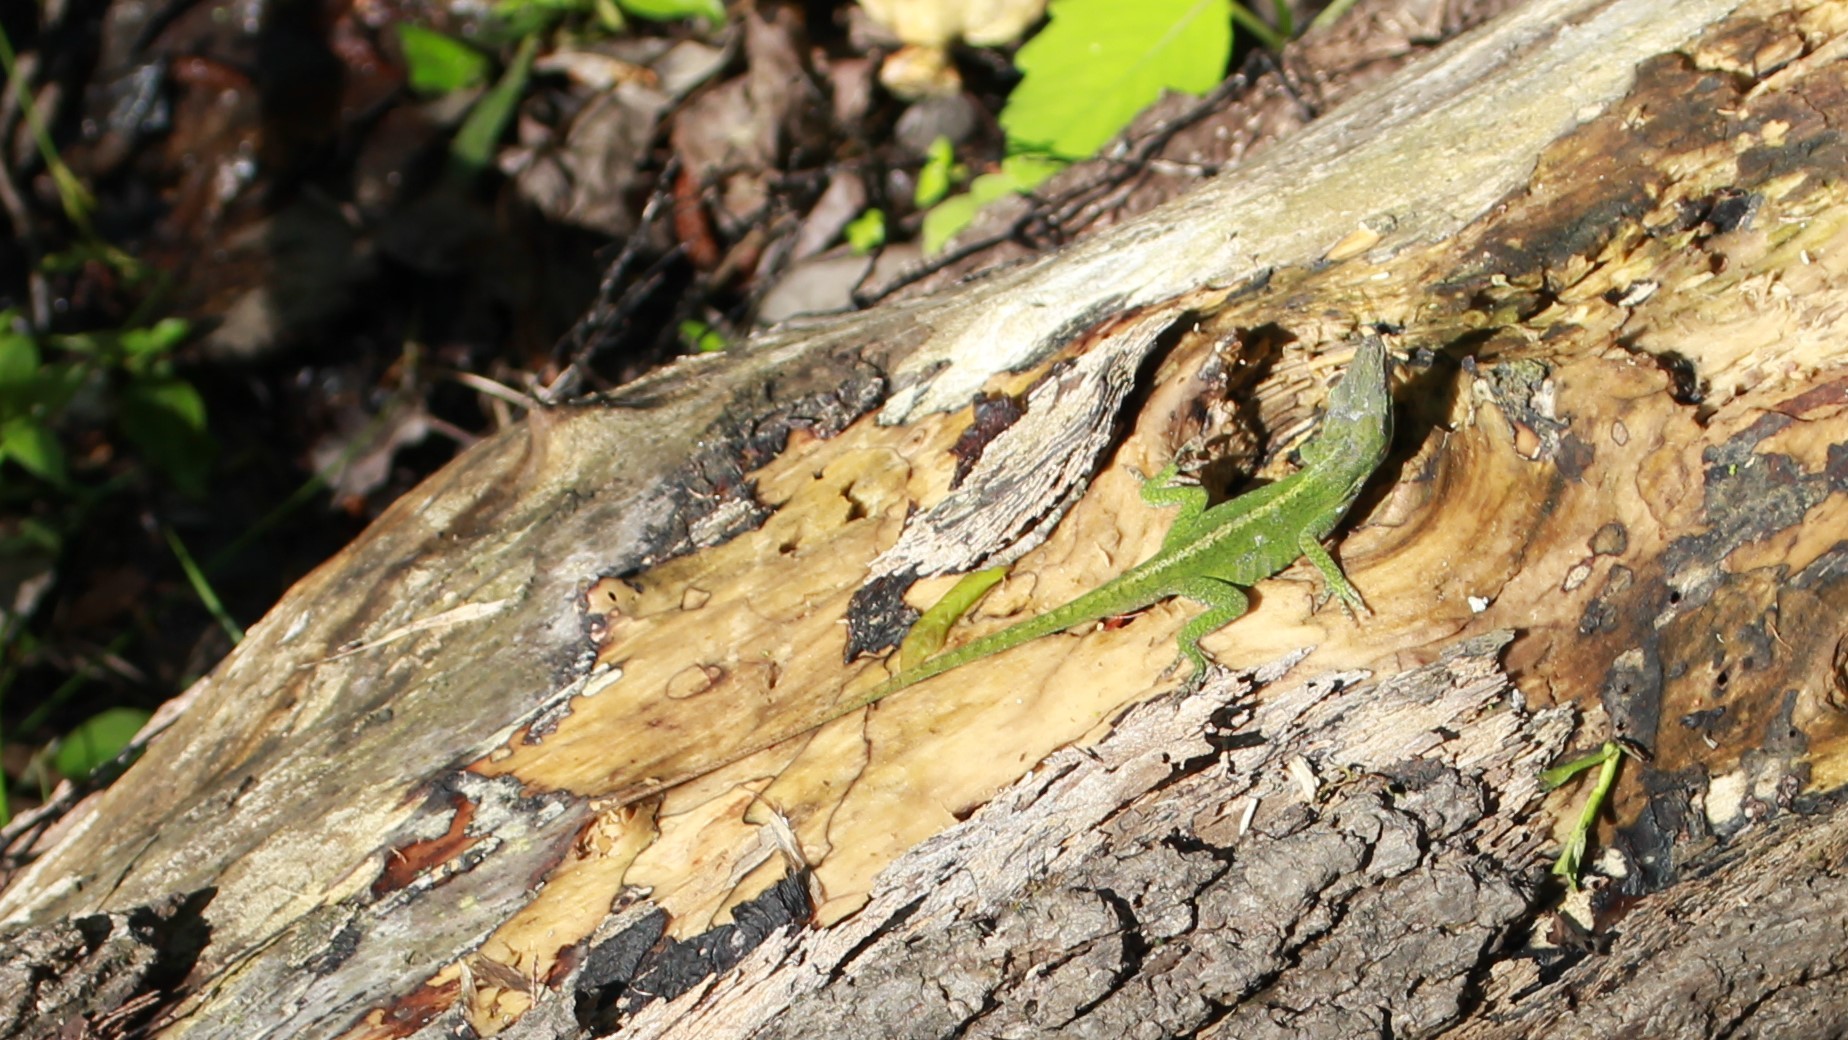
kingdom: Animalia
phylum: Chordata
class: Squamata
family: Dactyloidae
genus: Anolis
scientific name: Anolis carolinensis
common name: Green anole
